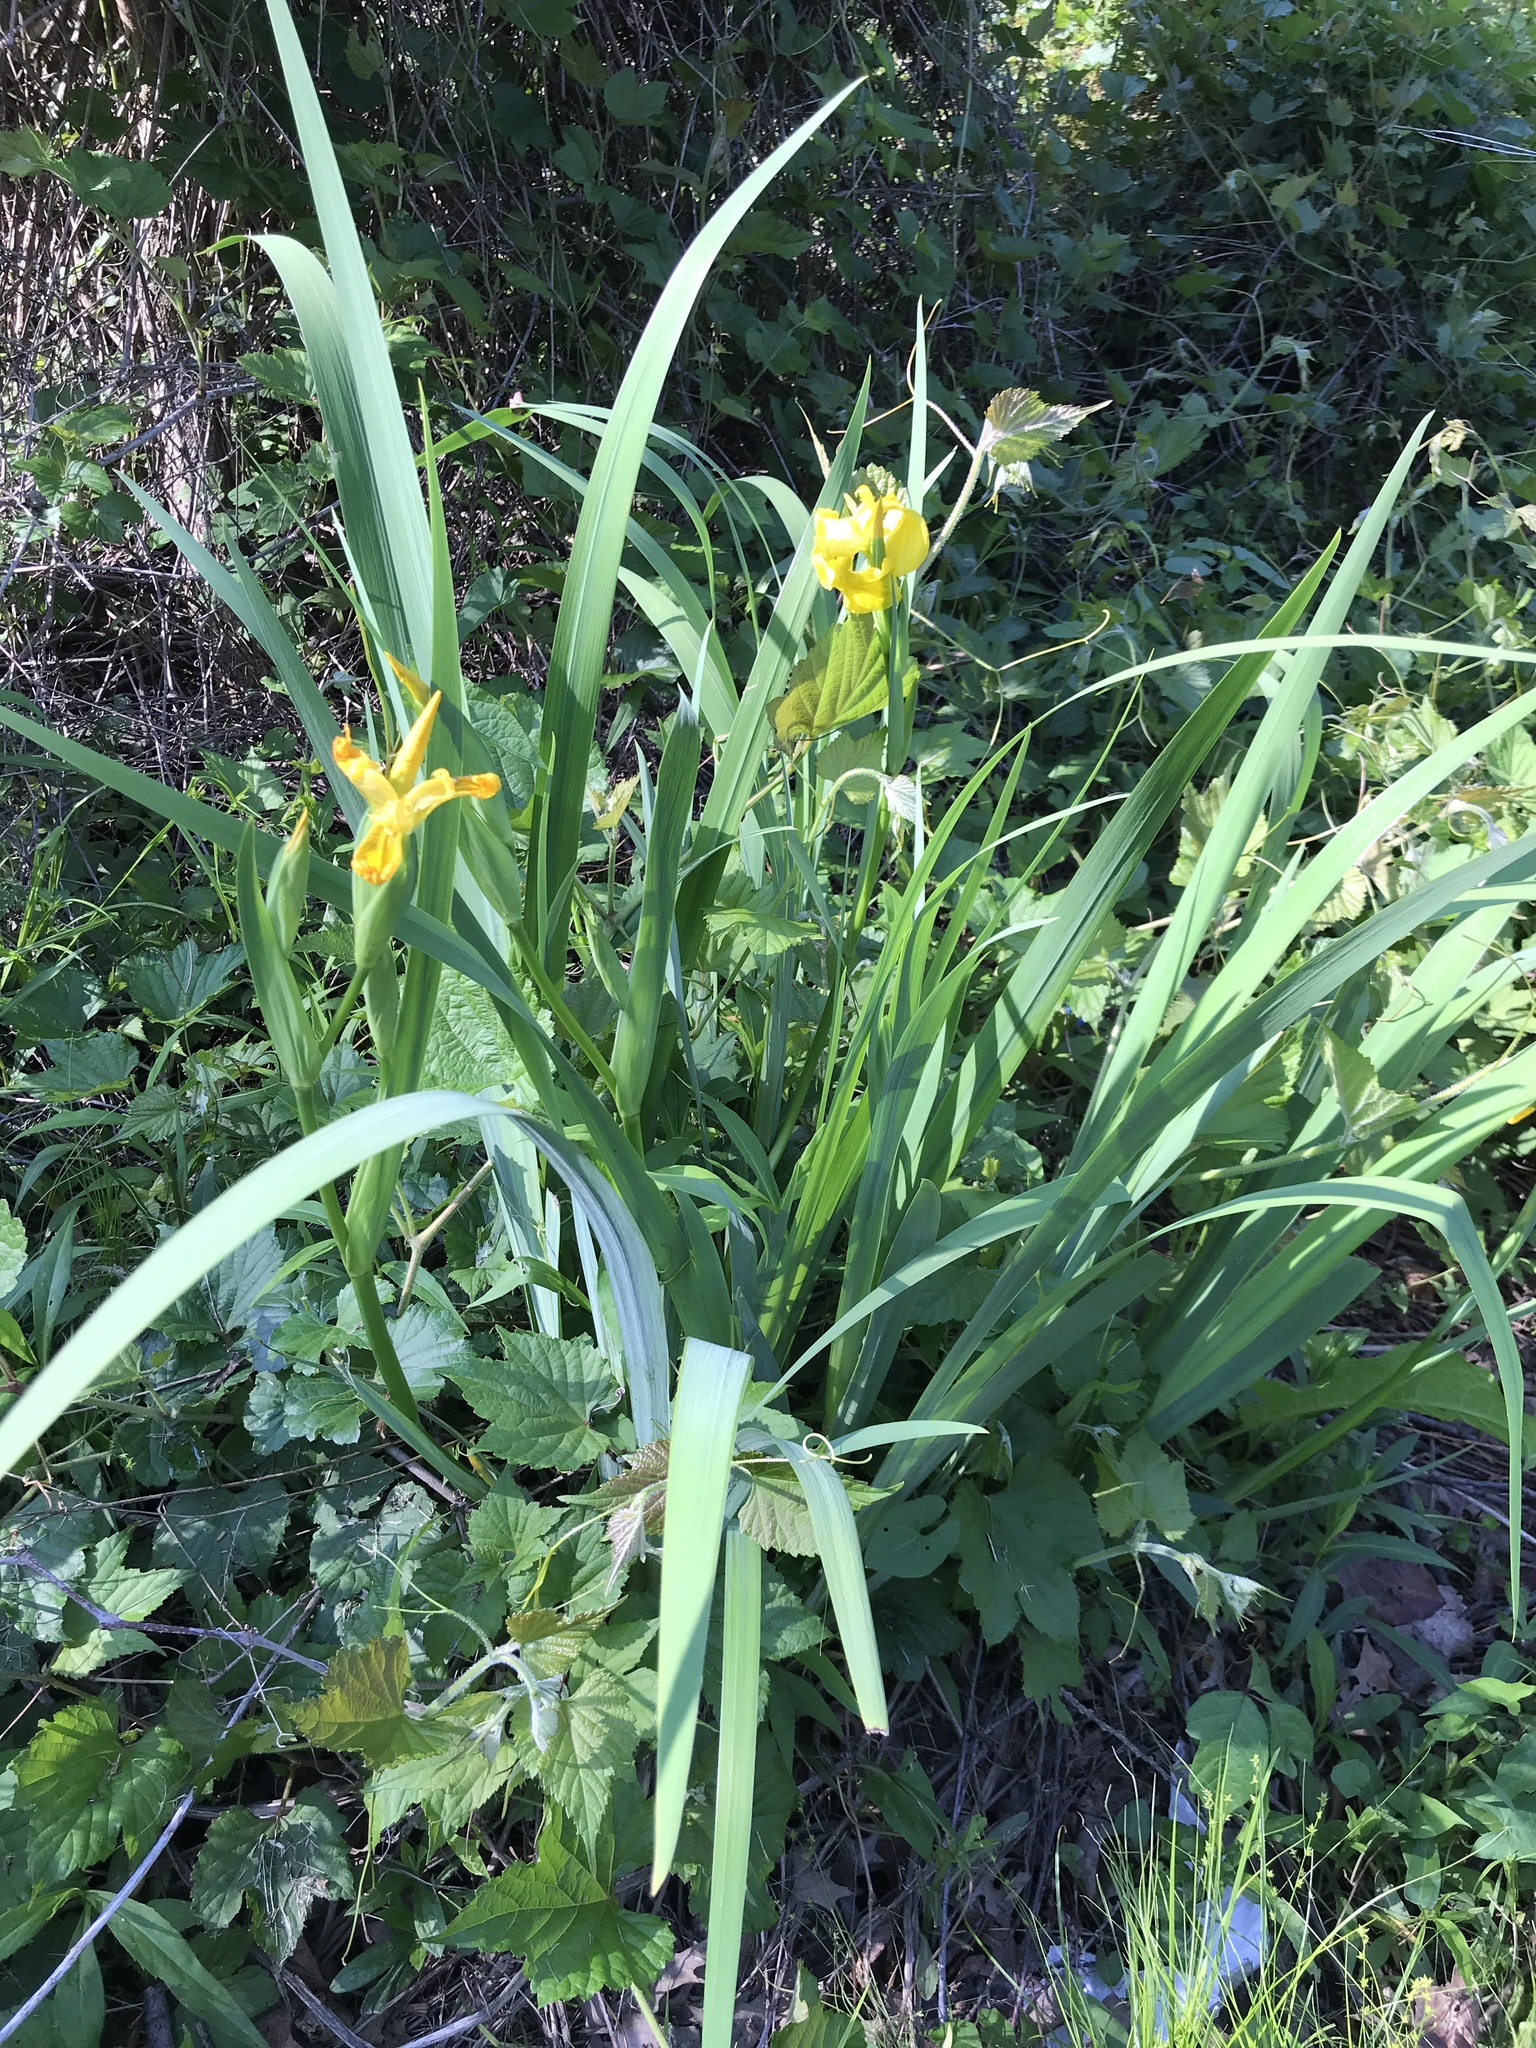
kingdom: Plantae
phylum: Tracheophyta
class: Liliopsida
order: Asparagales
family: Iridaceae
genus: Iris
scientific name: Iris pseudacorus
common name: Yellow flag
